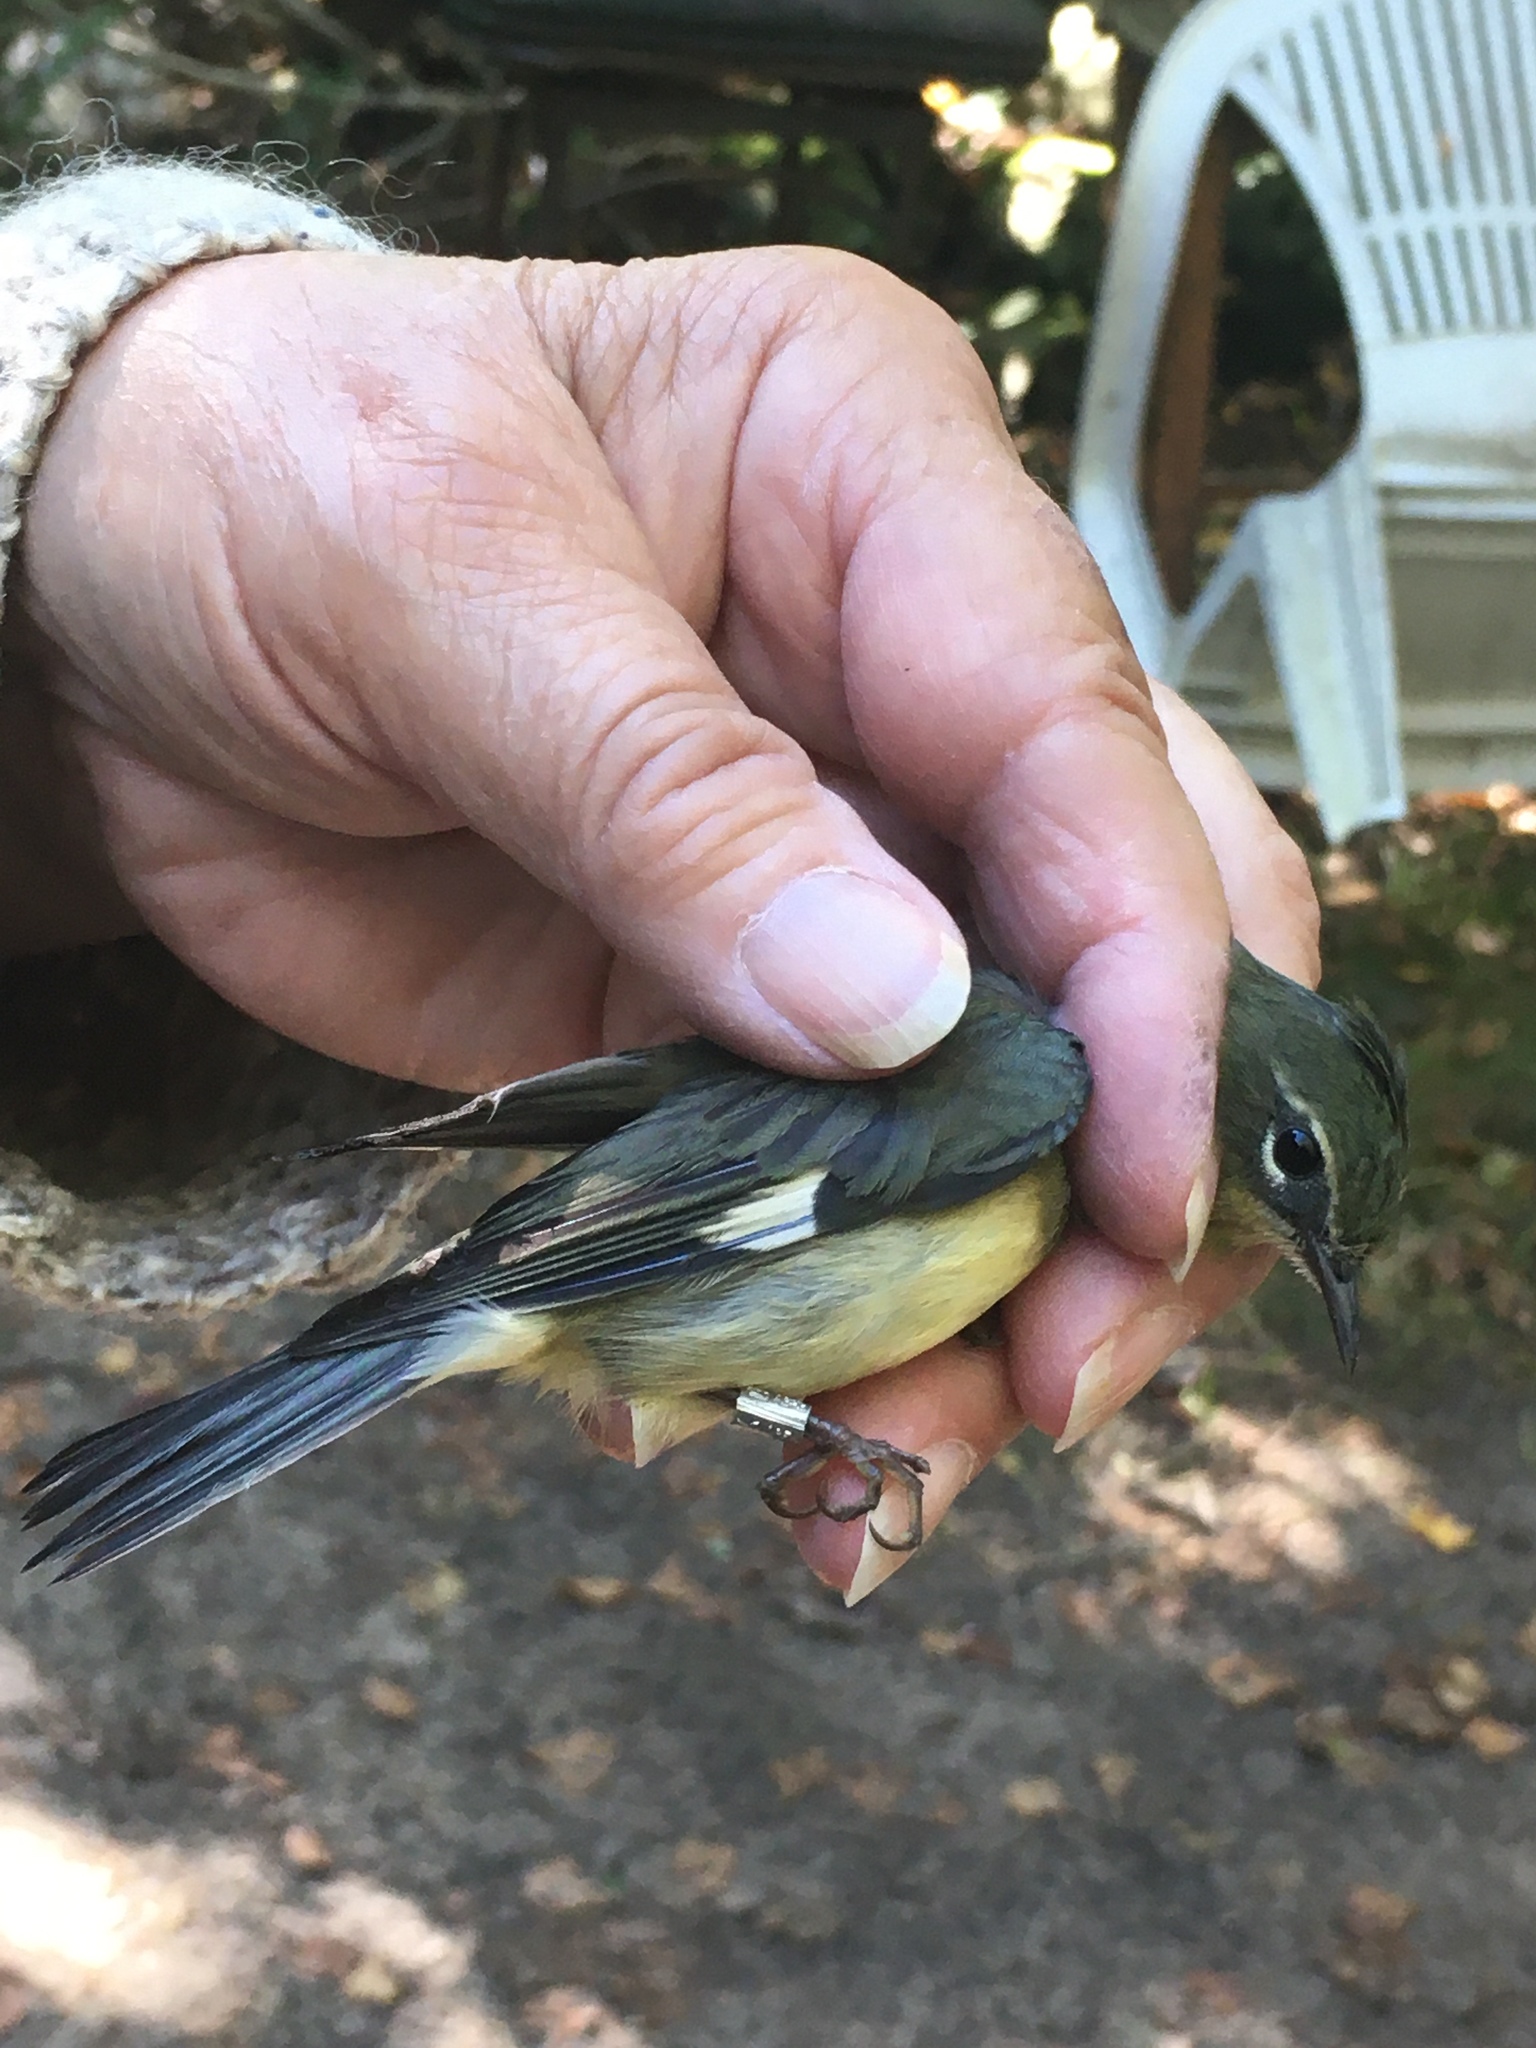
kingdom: Animalia
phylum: Chordata
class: Aves
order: Passeriformes
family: Parulidae
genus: Setophaga
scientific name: Setophaga caerulescens
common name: Black-throated blue warbler
